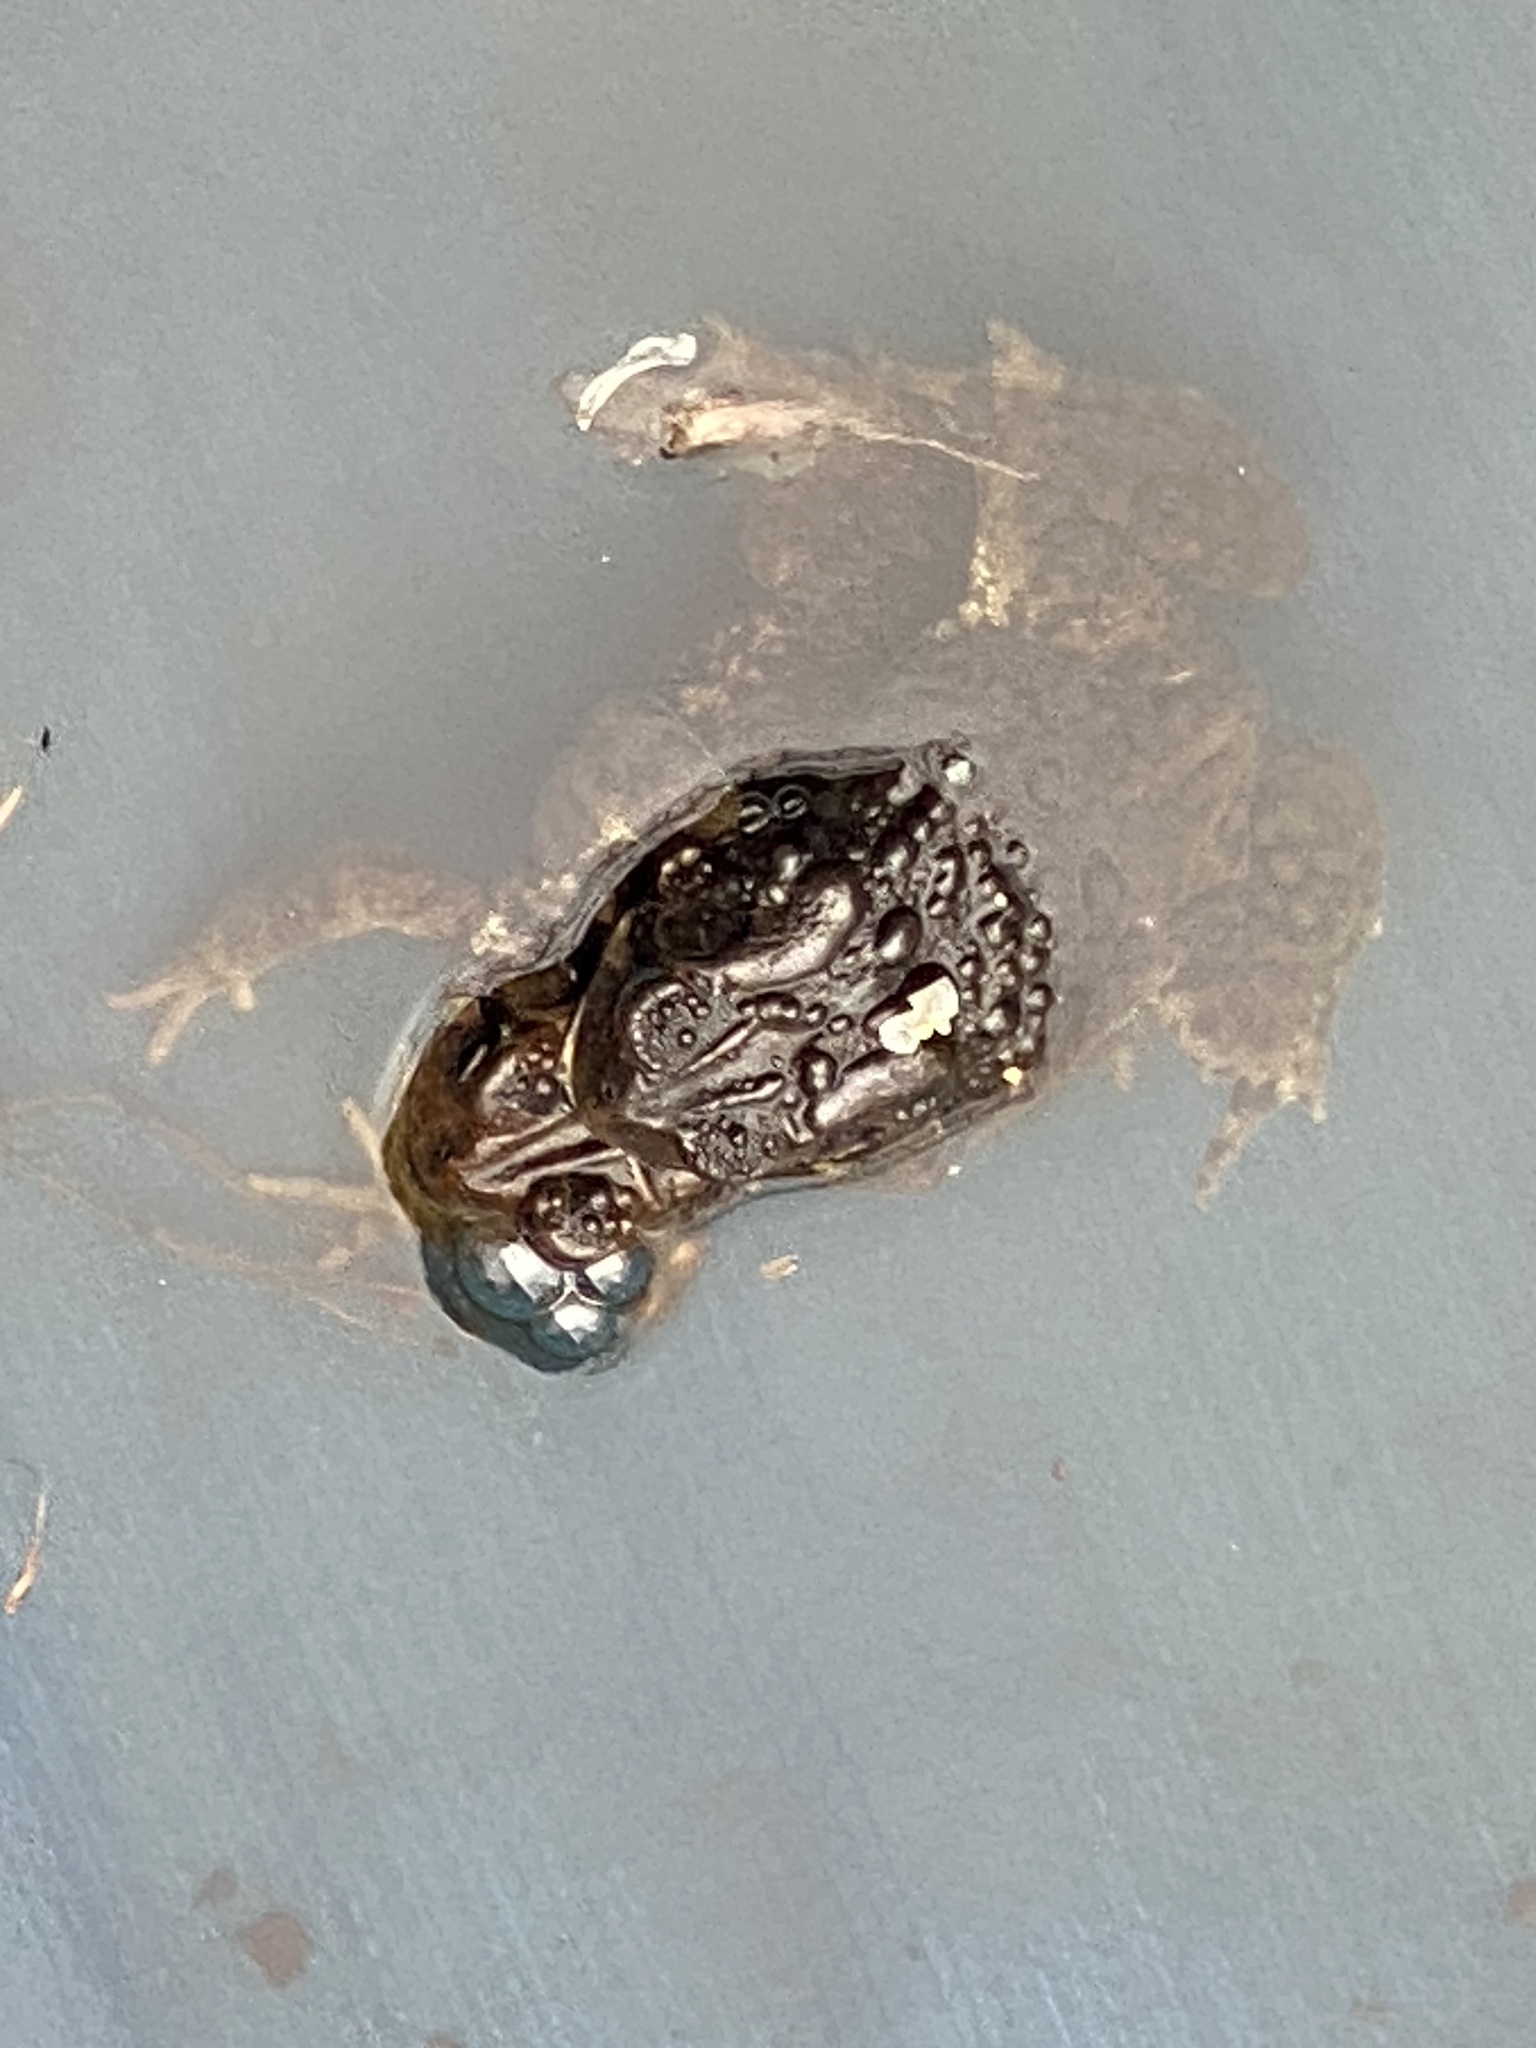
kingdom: Animalia
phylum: Chordata
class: Amphibia
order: Anura
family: Bufonidae
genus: Anaxyrus
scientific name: Anaxyrus americanus
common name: American toad
